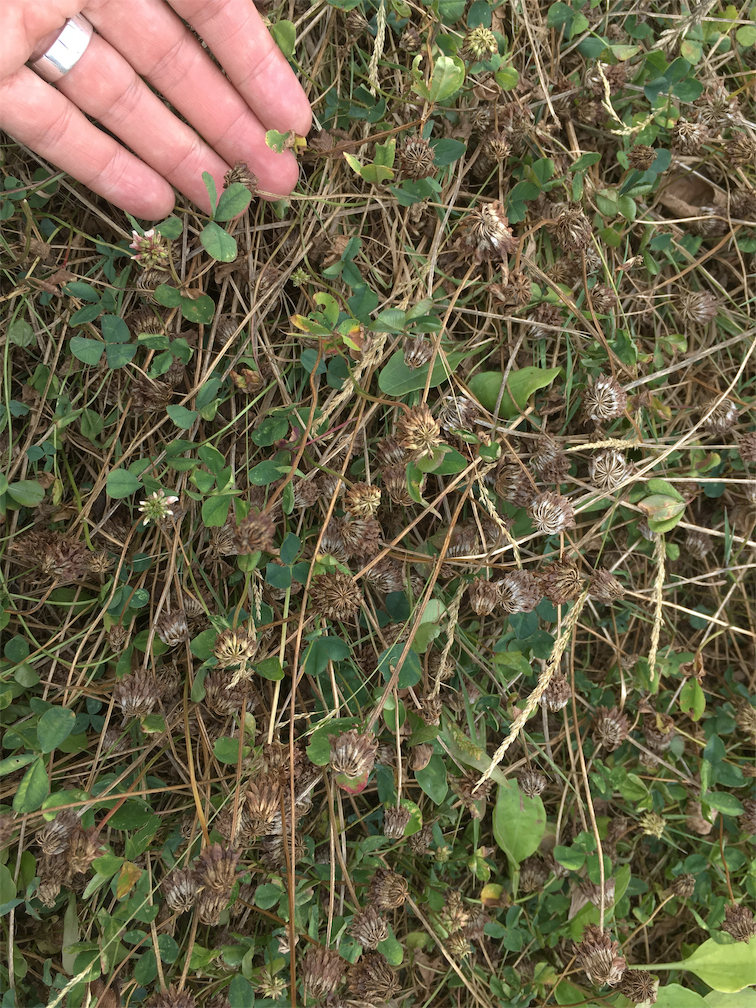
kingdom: Plantae
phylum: Tracheophyta
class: Magnoliopsida
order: Fabales
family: Fabaceae
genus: Trifolium
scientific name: Trifolium repens
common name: White clover
